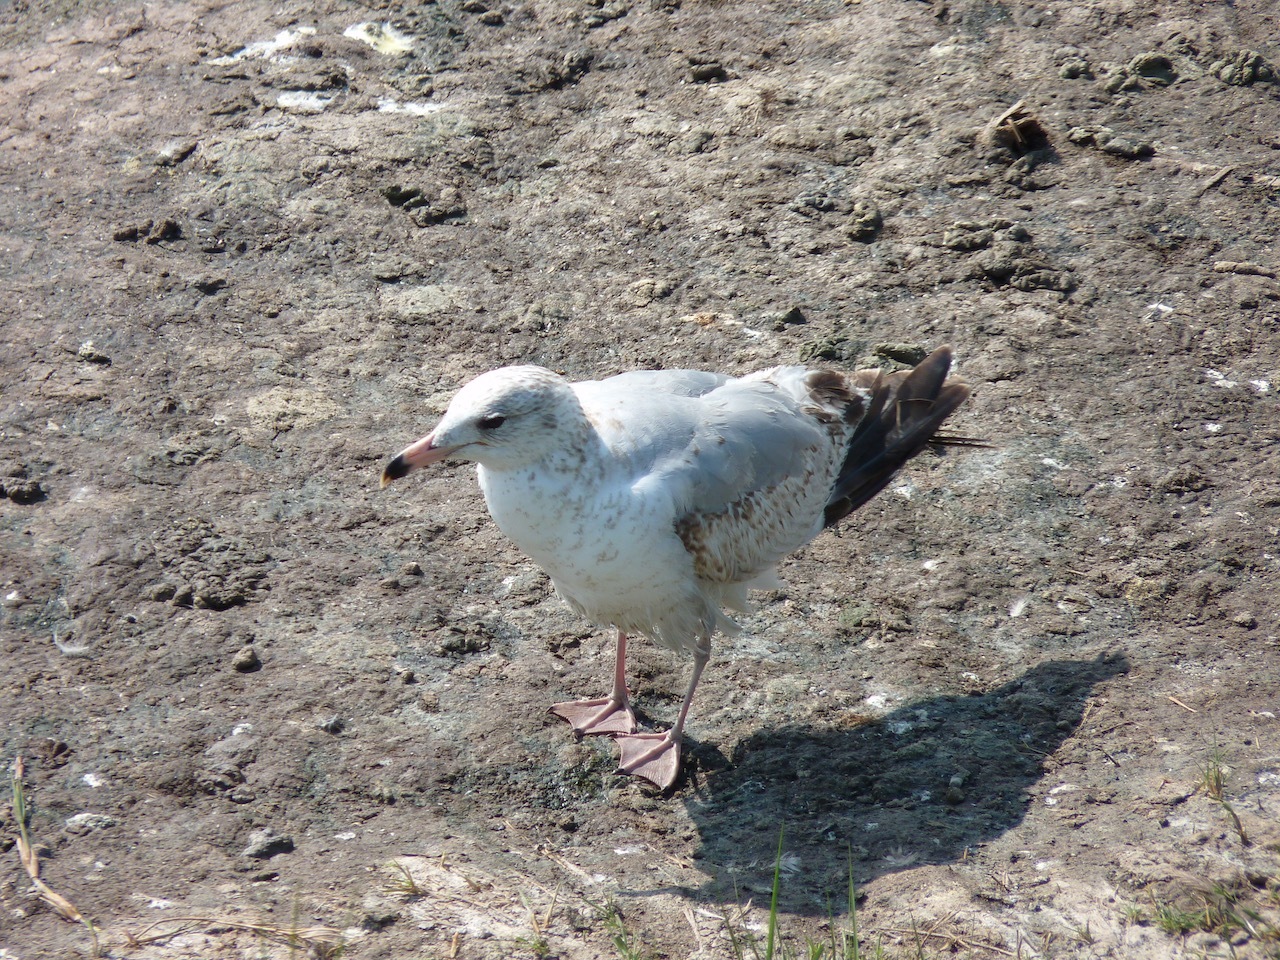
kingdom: Animalia
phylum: Chordata
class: Aves
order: Charadriiformes
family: Laridae
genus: Larus
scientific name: Larus delawarensis
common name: Ring-billed gull
